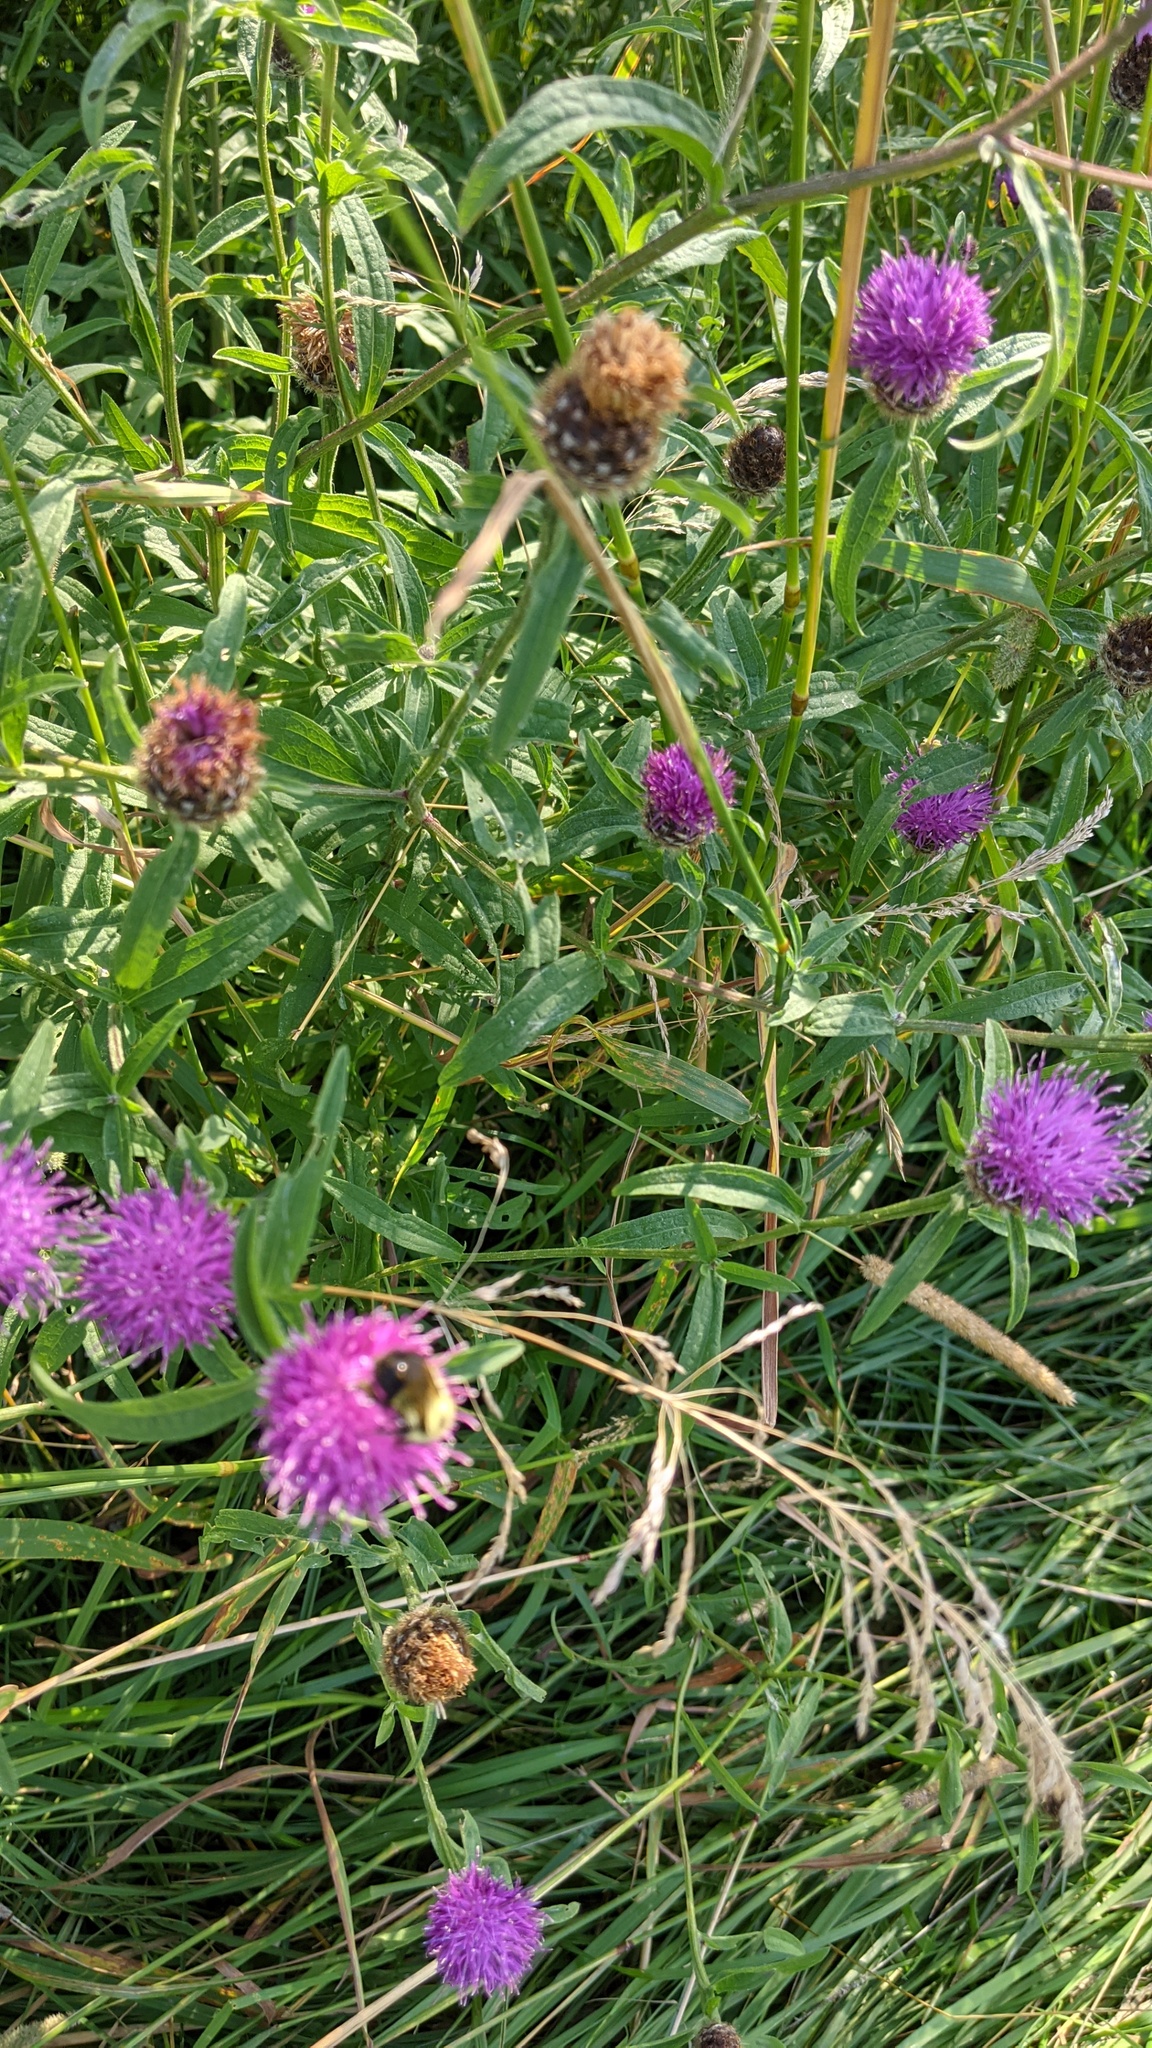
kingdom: Plantae
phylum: Tracheophyta
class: Magnoliopsida
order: Asterales
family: Asteraceae
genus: Centaurea
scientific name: Centaurea nigra
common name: Lesser knapweed
